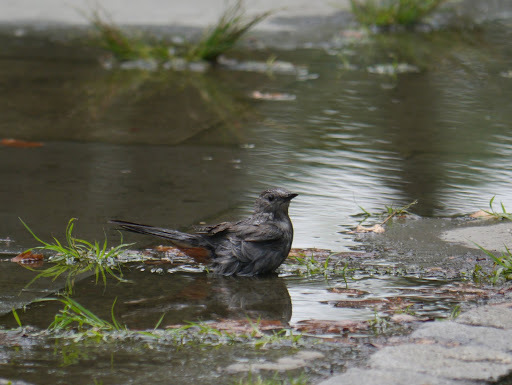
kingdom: Animalia
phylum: Chordata
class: Aves
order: Passeriformes
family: Mimidae
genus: Dumetella
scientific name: Dumetella carolinensis
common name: Gray catbird
